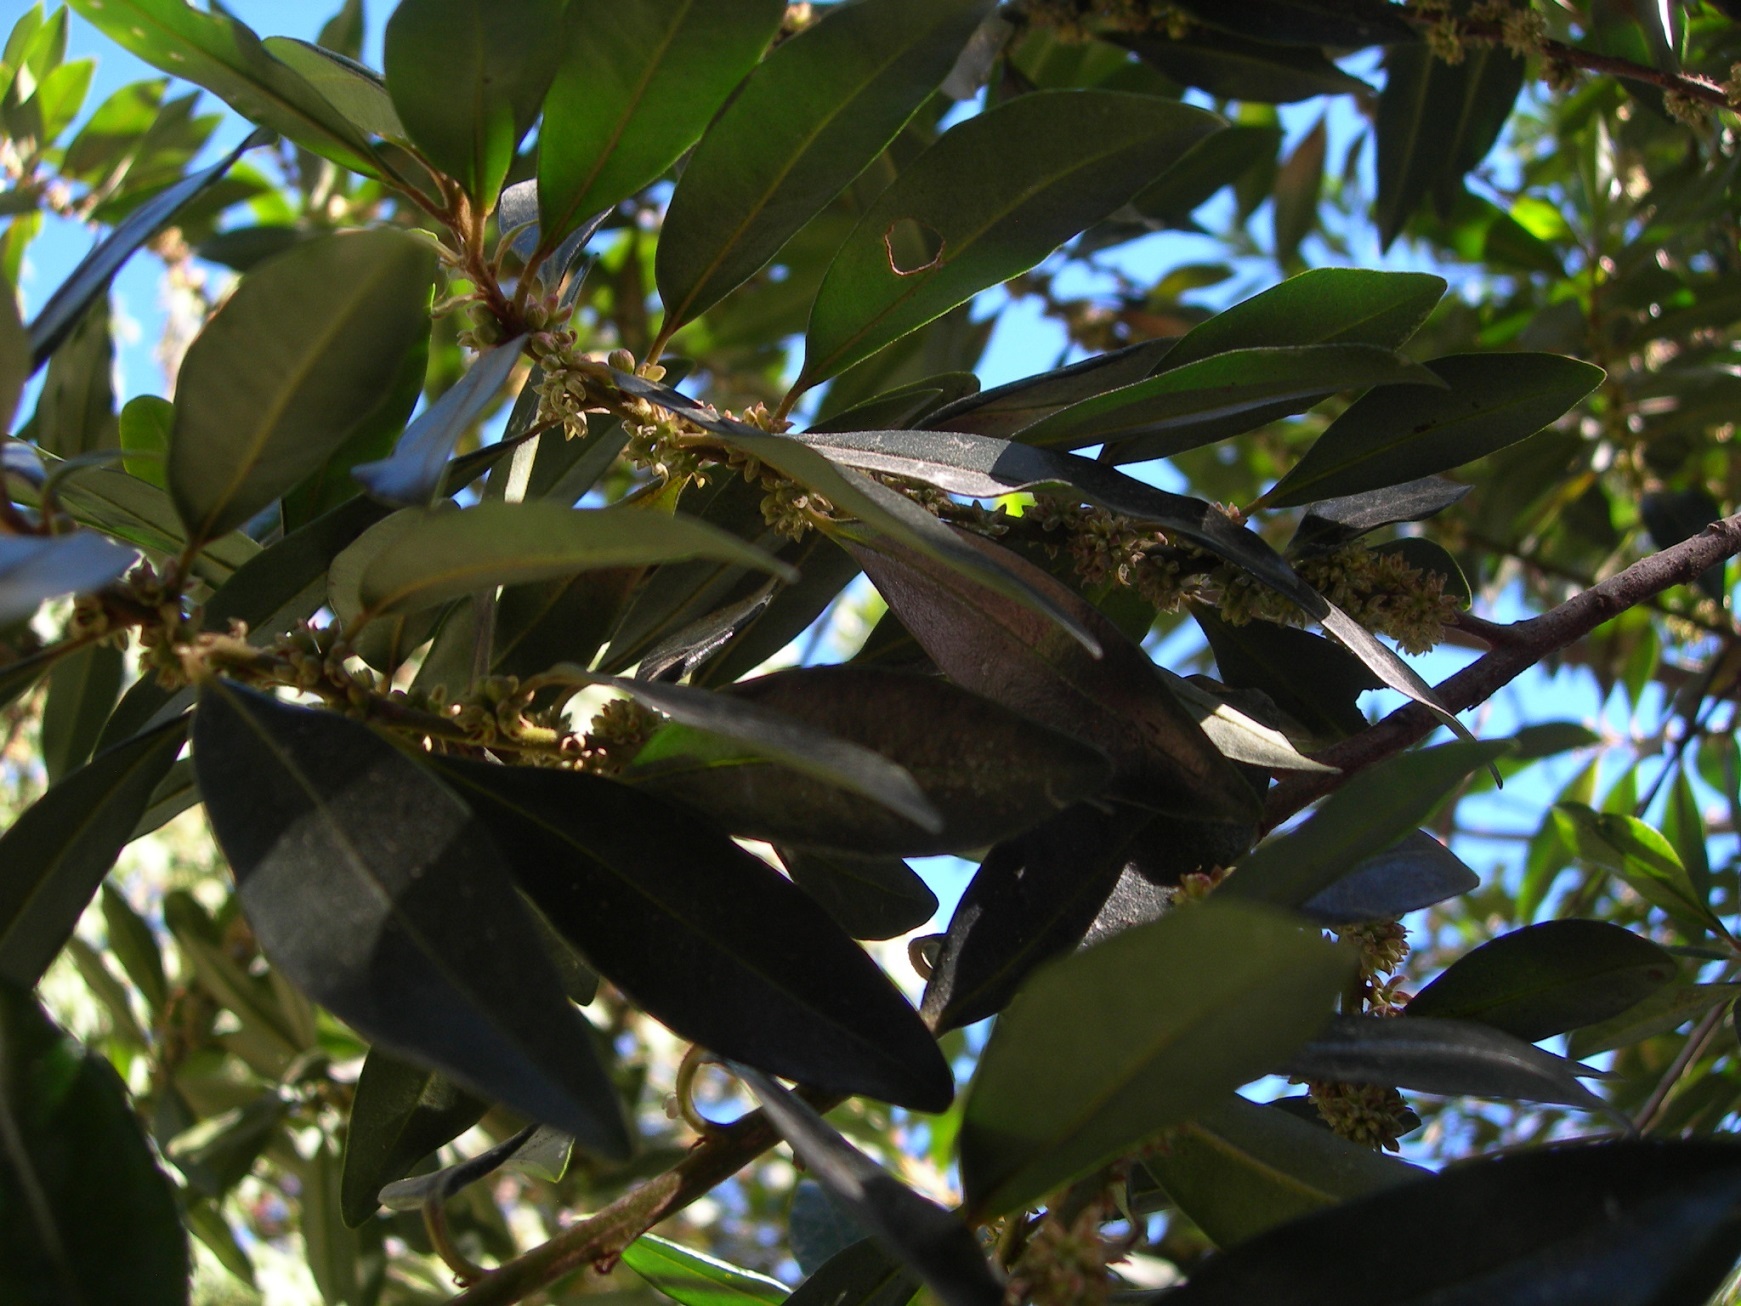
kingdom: Plantae
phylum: Tracheophyta
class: Magnoliopsida
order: Ericales
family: Primulaceae
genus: Myrsine
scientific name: Myrsine coriacea
